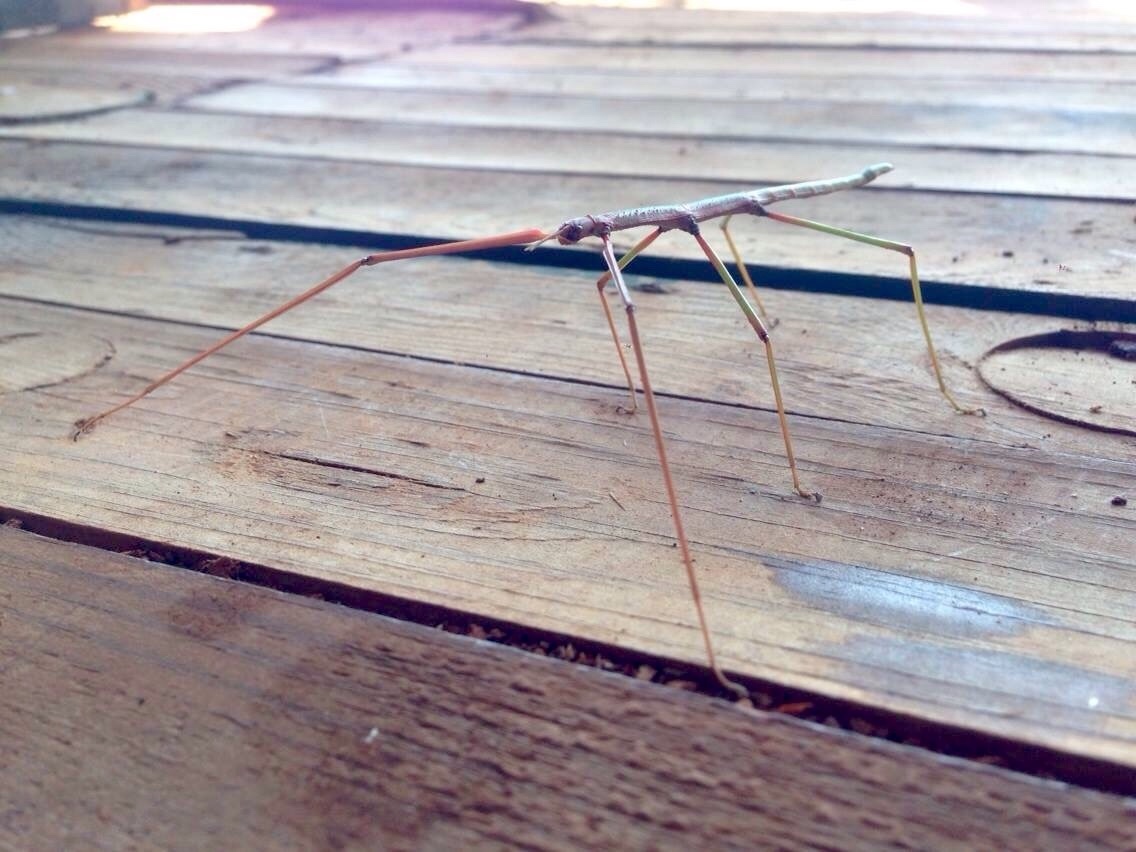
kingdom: Animalia
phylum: Arthropoda
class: Insecta
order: Phasmida
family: Bacillidae
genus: Bacillus
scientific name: Bacillus atticus
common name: Greek stick-insect
